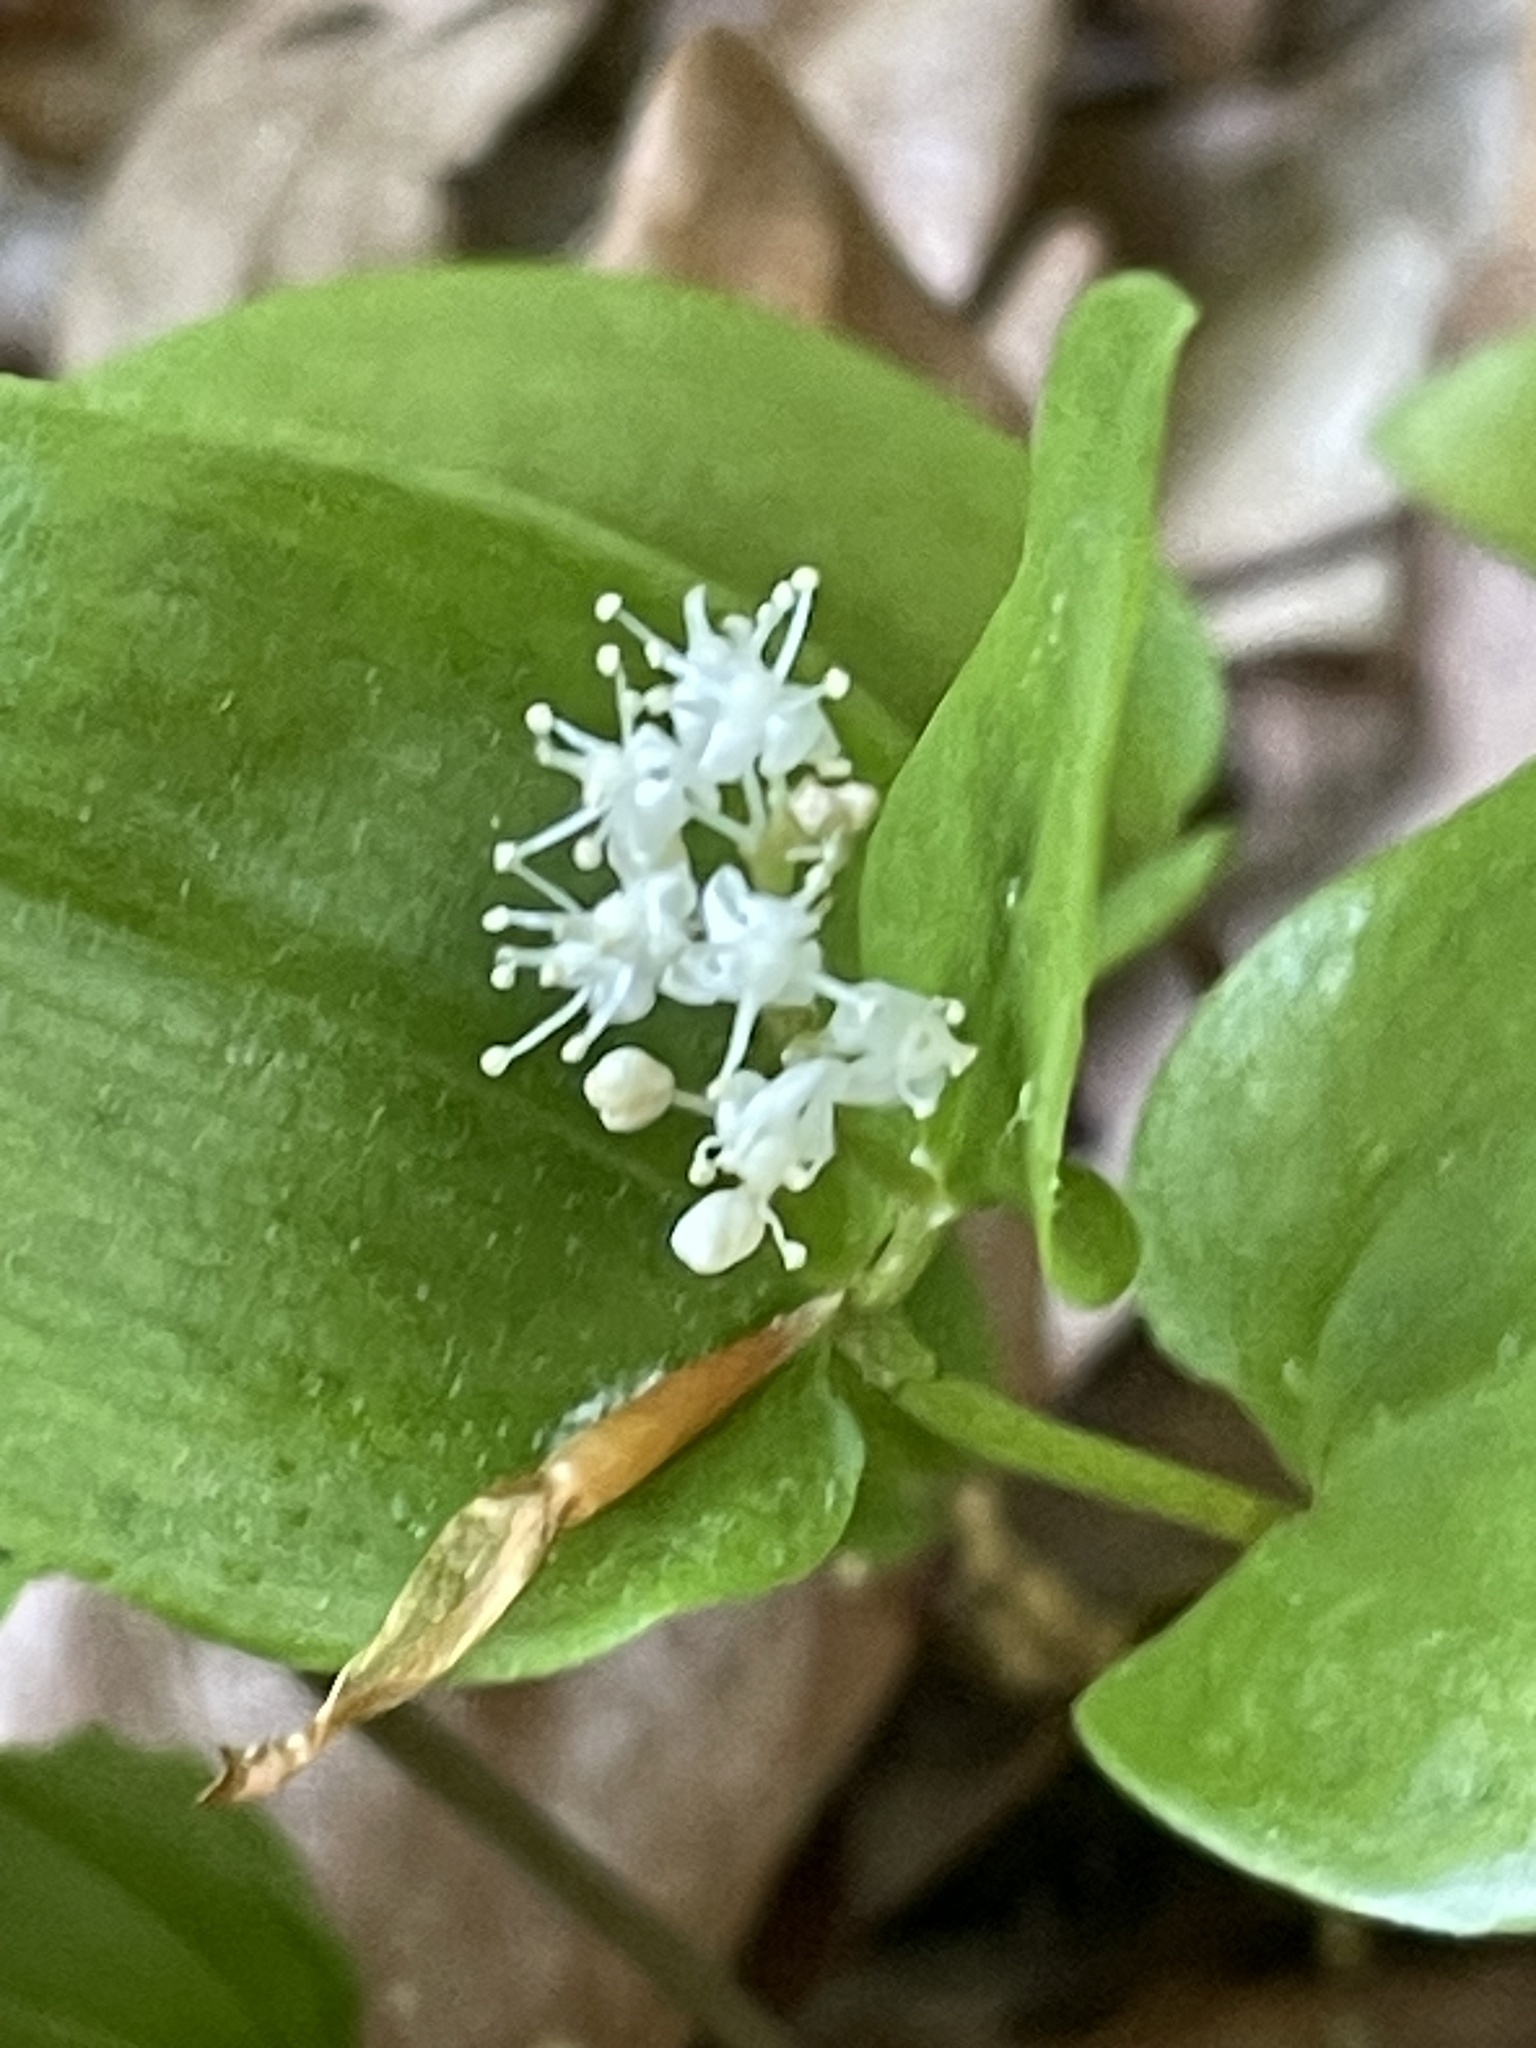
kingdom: Plantae
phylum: Tracheophyta
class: Liliopsida
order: Asparagales
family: Asparagaceae
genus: Maianthemum
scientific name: Maianthemum canadense
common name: False lily-of-the-valley
